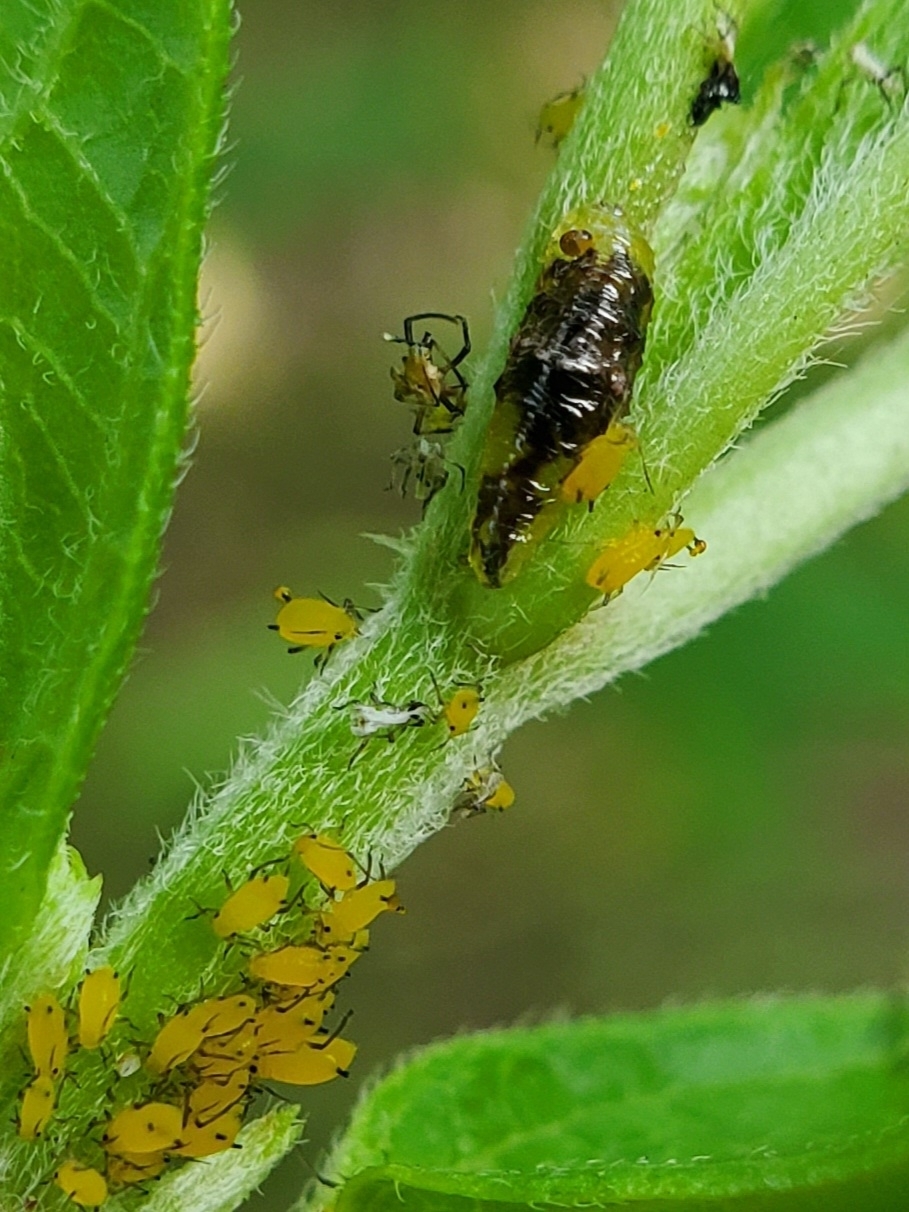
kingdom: Animalia
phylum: Arthropoda
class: Insecta
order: Diptera
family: Syrphidae
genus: Ocyptamus
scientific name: Ocyptamus fuscipennis
